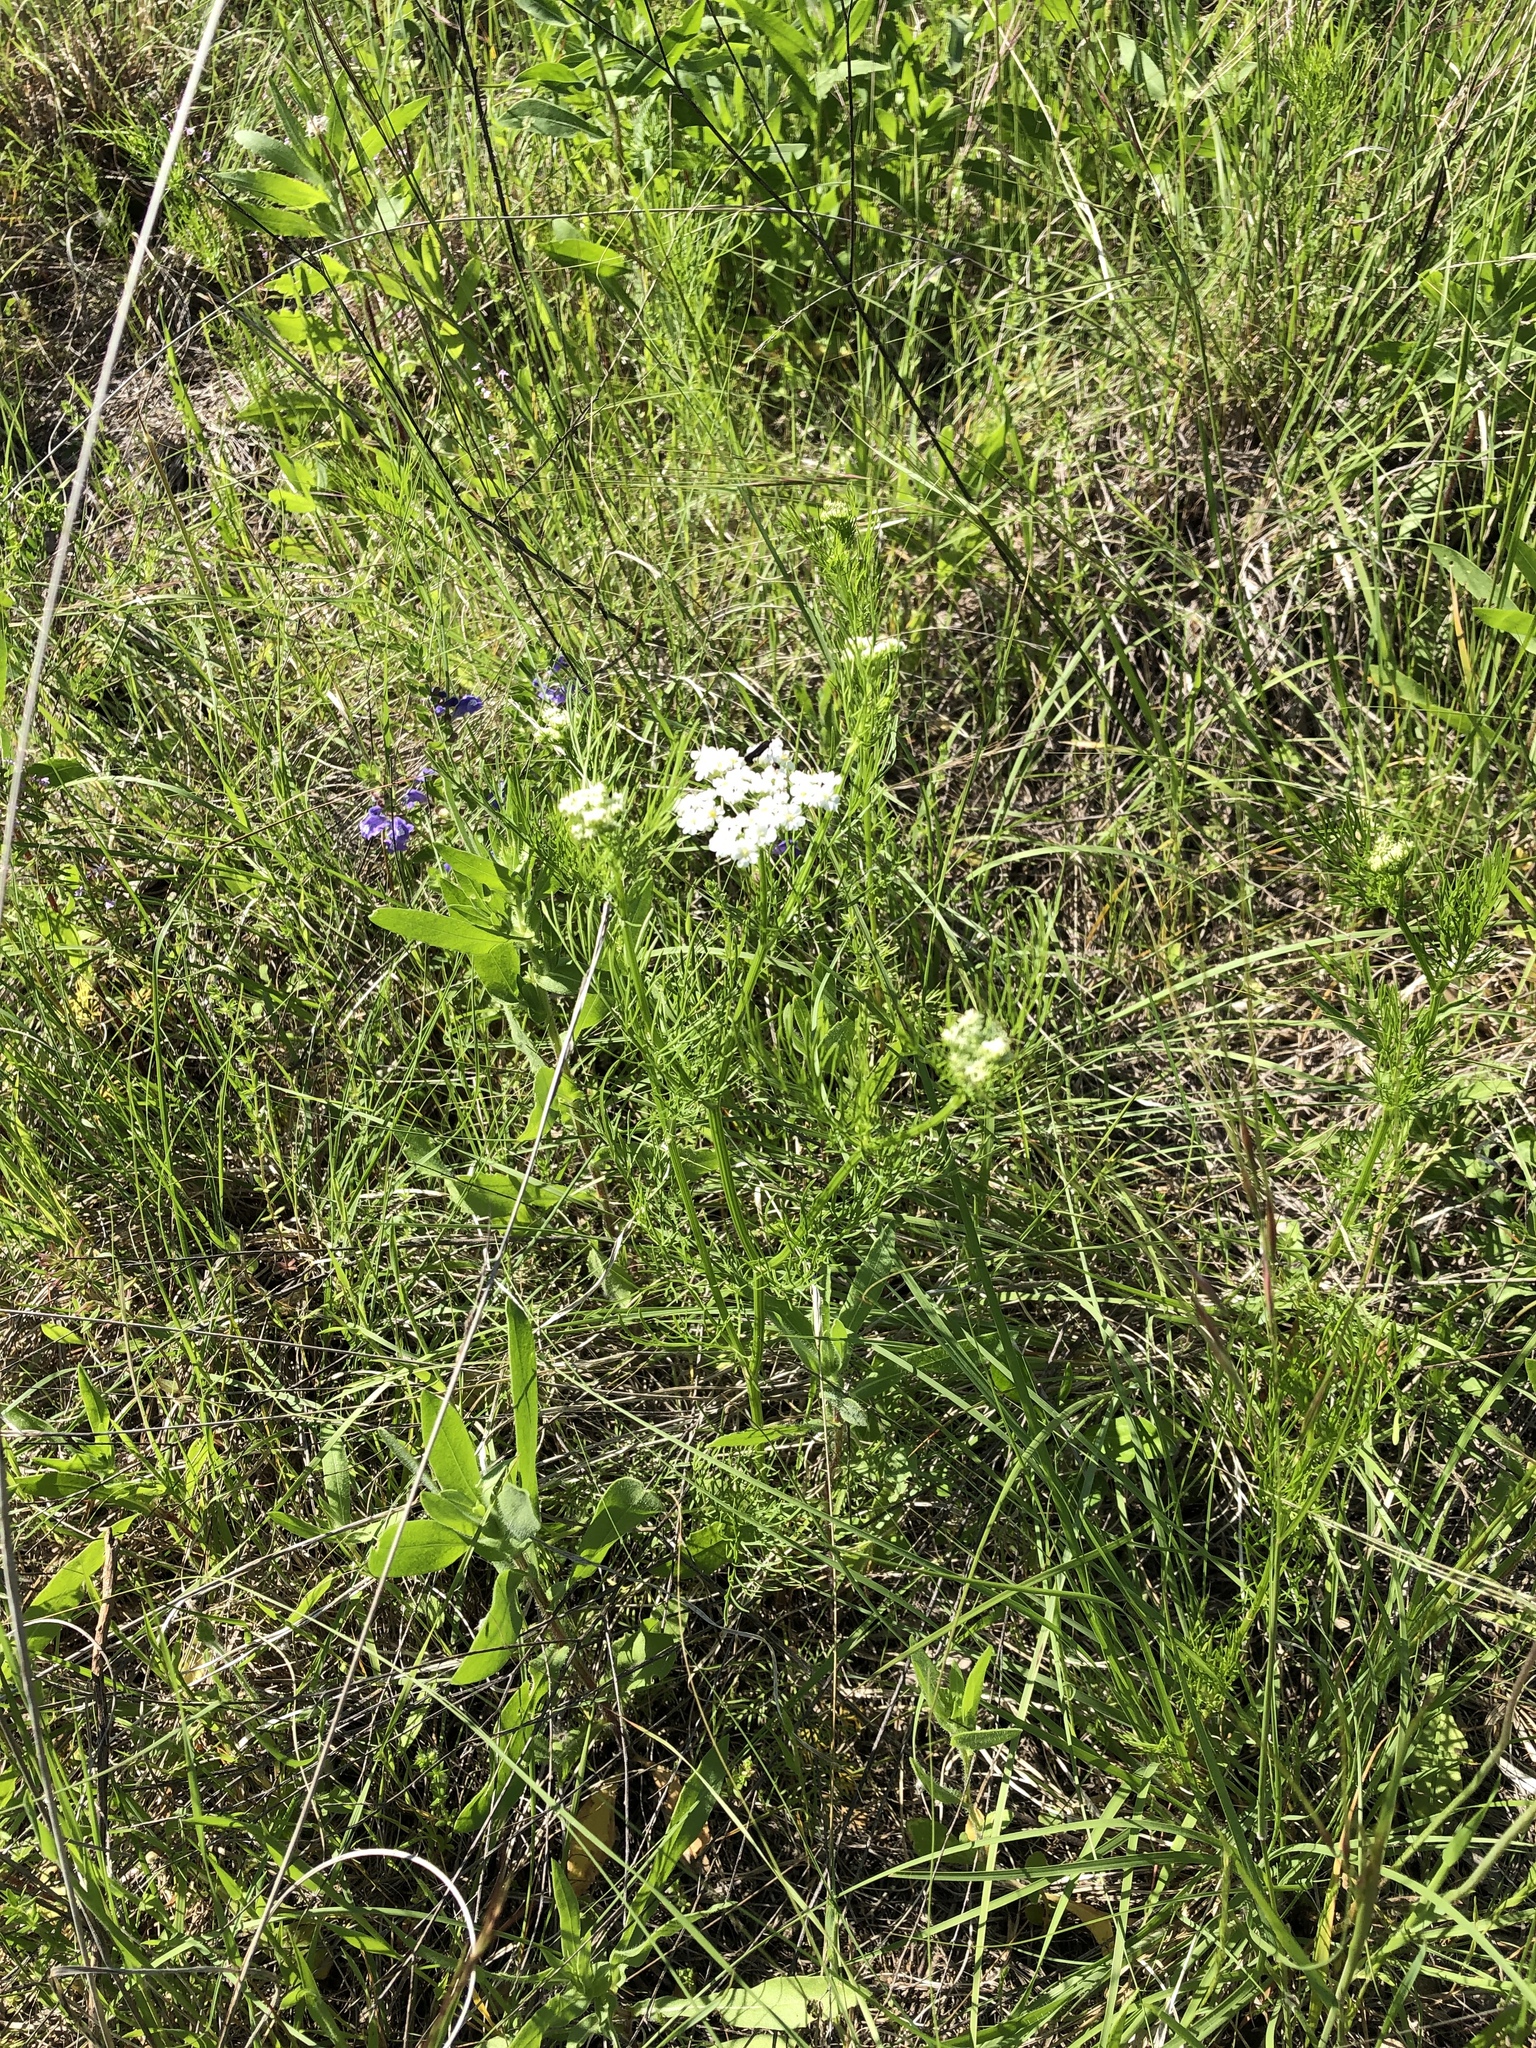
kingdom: Plantae
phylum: Tracheophyta
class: Magnoliopsida
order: Apiales
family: Apiaceae
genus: Atrema
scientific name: Atrema americanum
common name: Prairie-bishop
